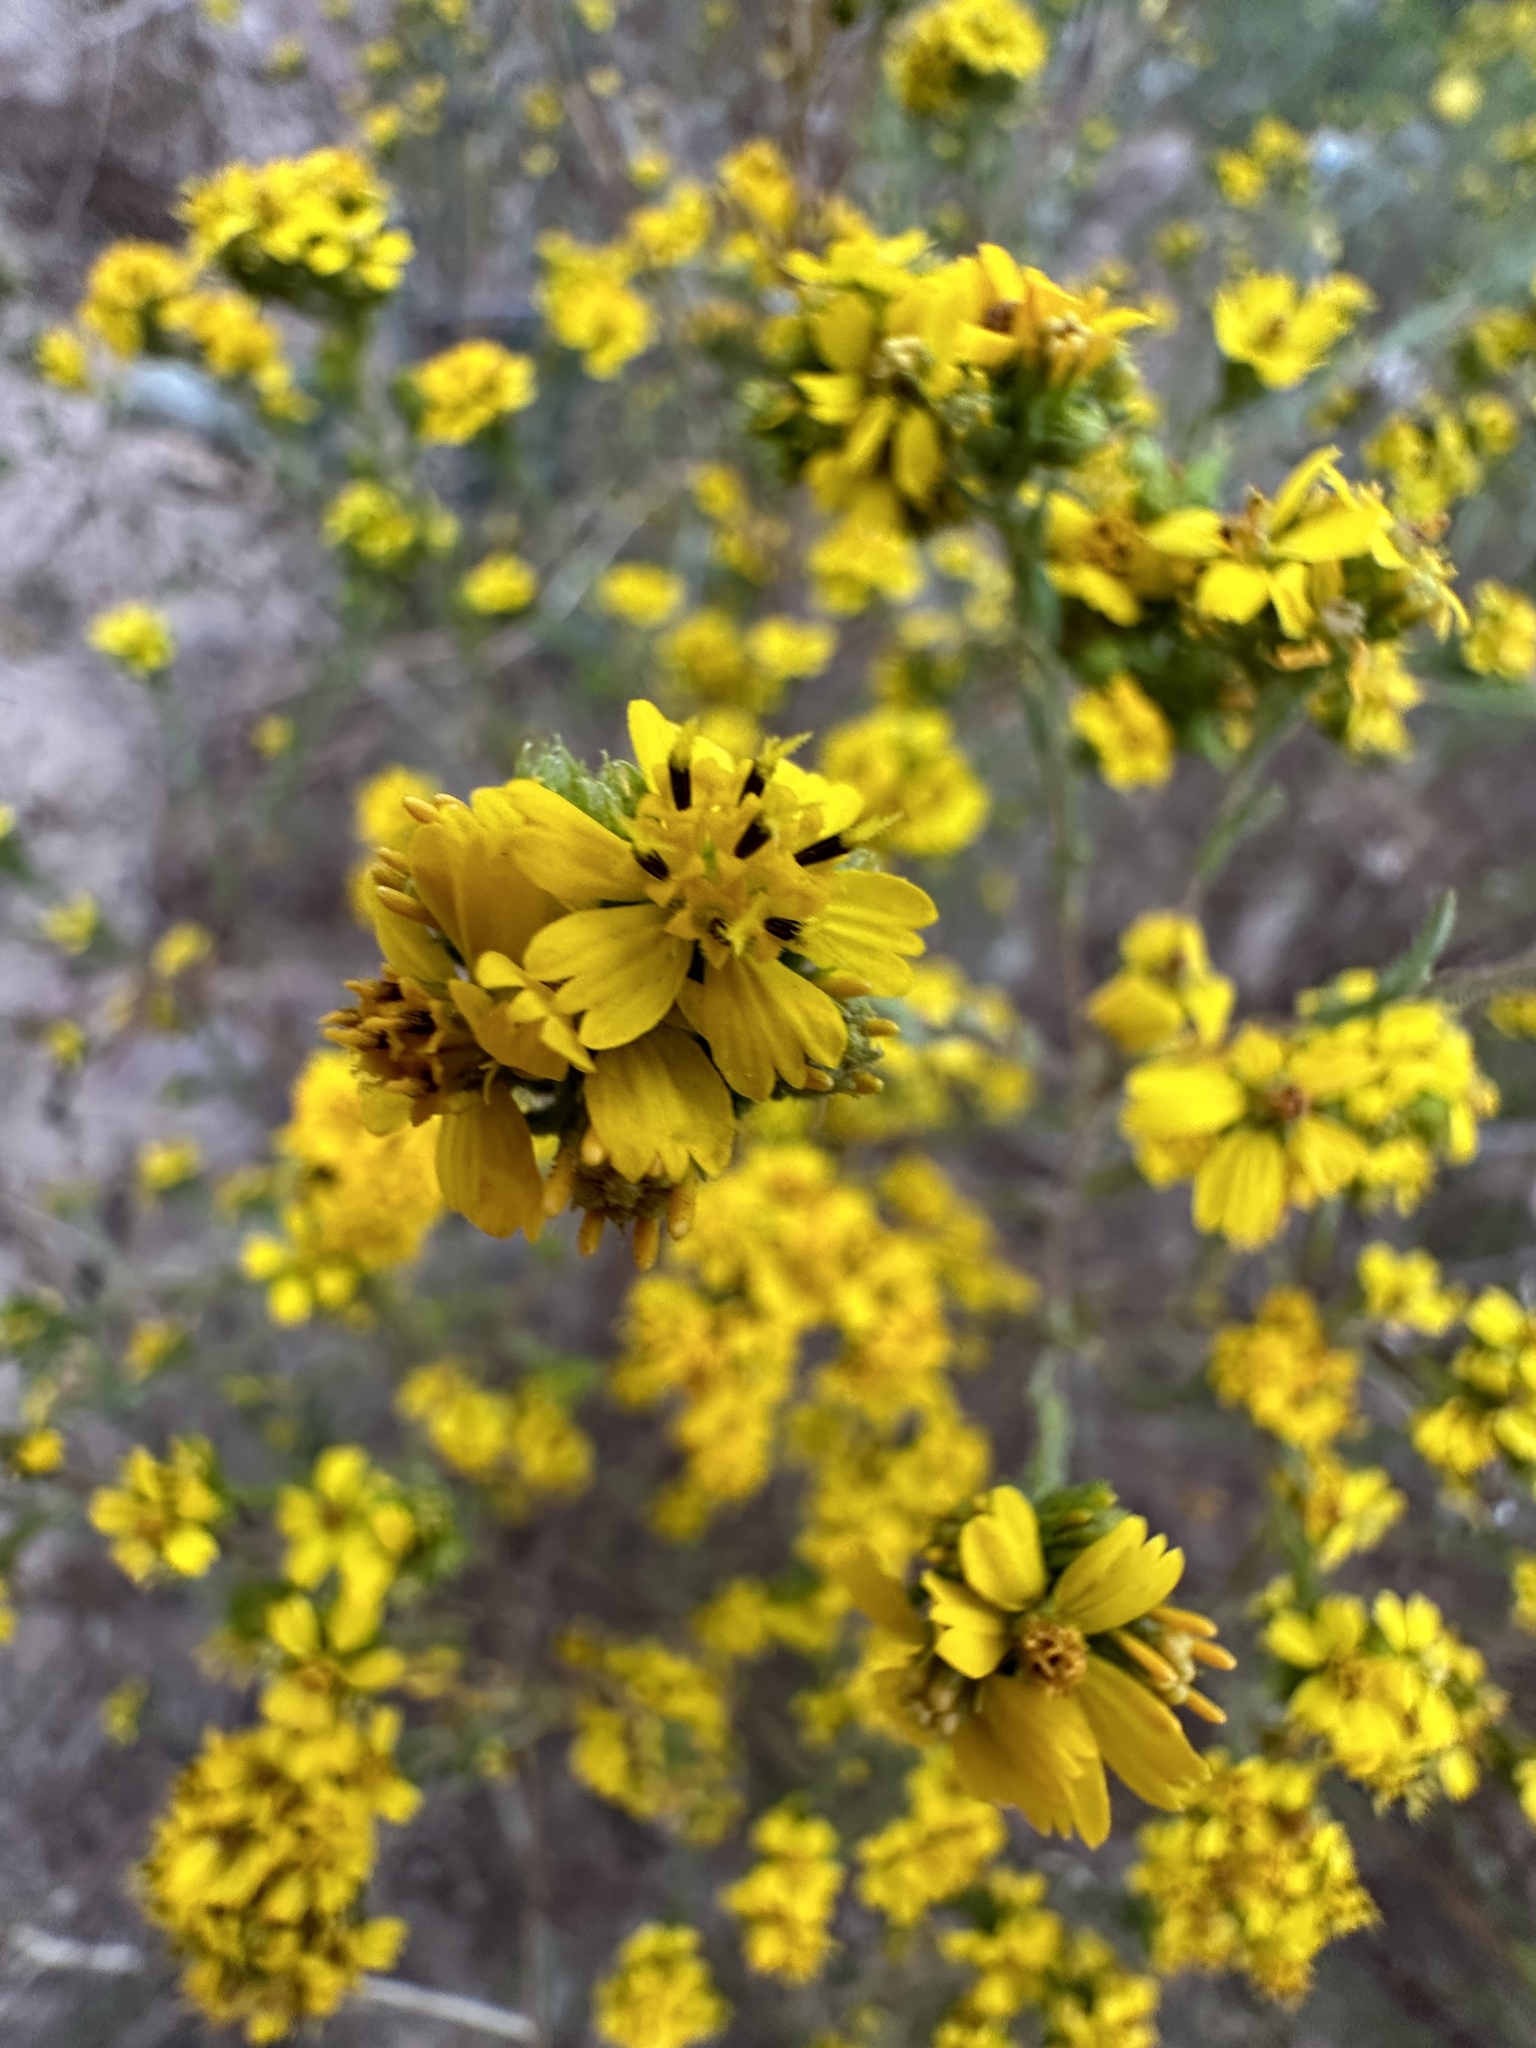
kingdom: Plantae
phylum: Tracheophyta
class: Magnoliopsida
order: Asterales
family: Asteraceae
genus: Deinandra
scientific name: Deinandra fasciculata
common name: Clustered tarweed
